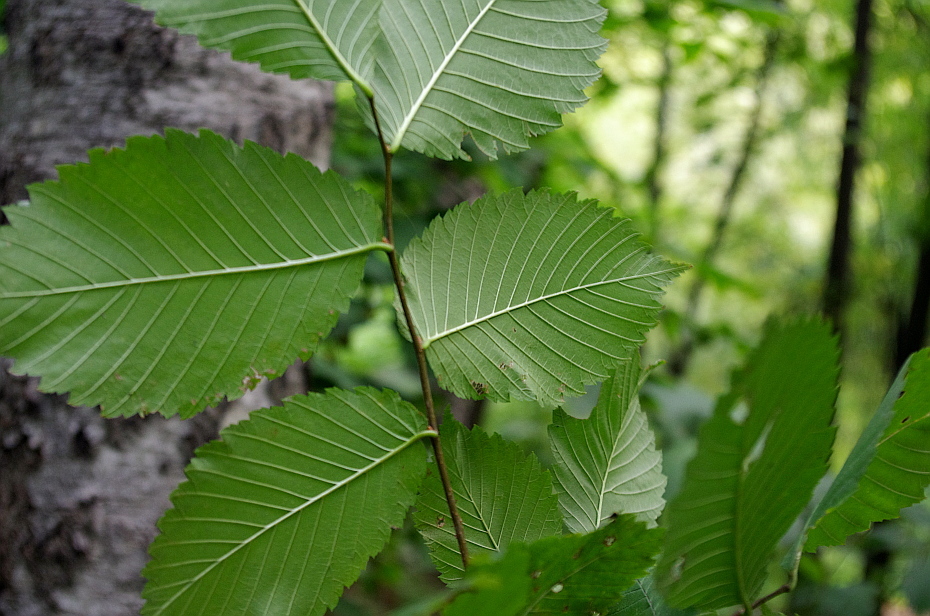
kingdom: Plantae
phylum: Tracheophyta
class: Magnoliopsida
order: Rosales
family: Ulmaceae
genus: Ulmus
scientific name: Ulmus glabra
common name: Wych elm
